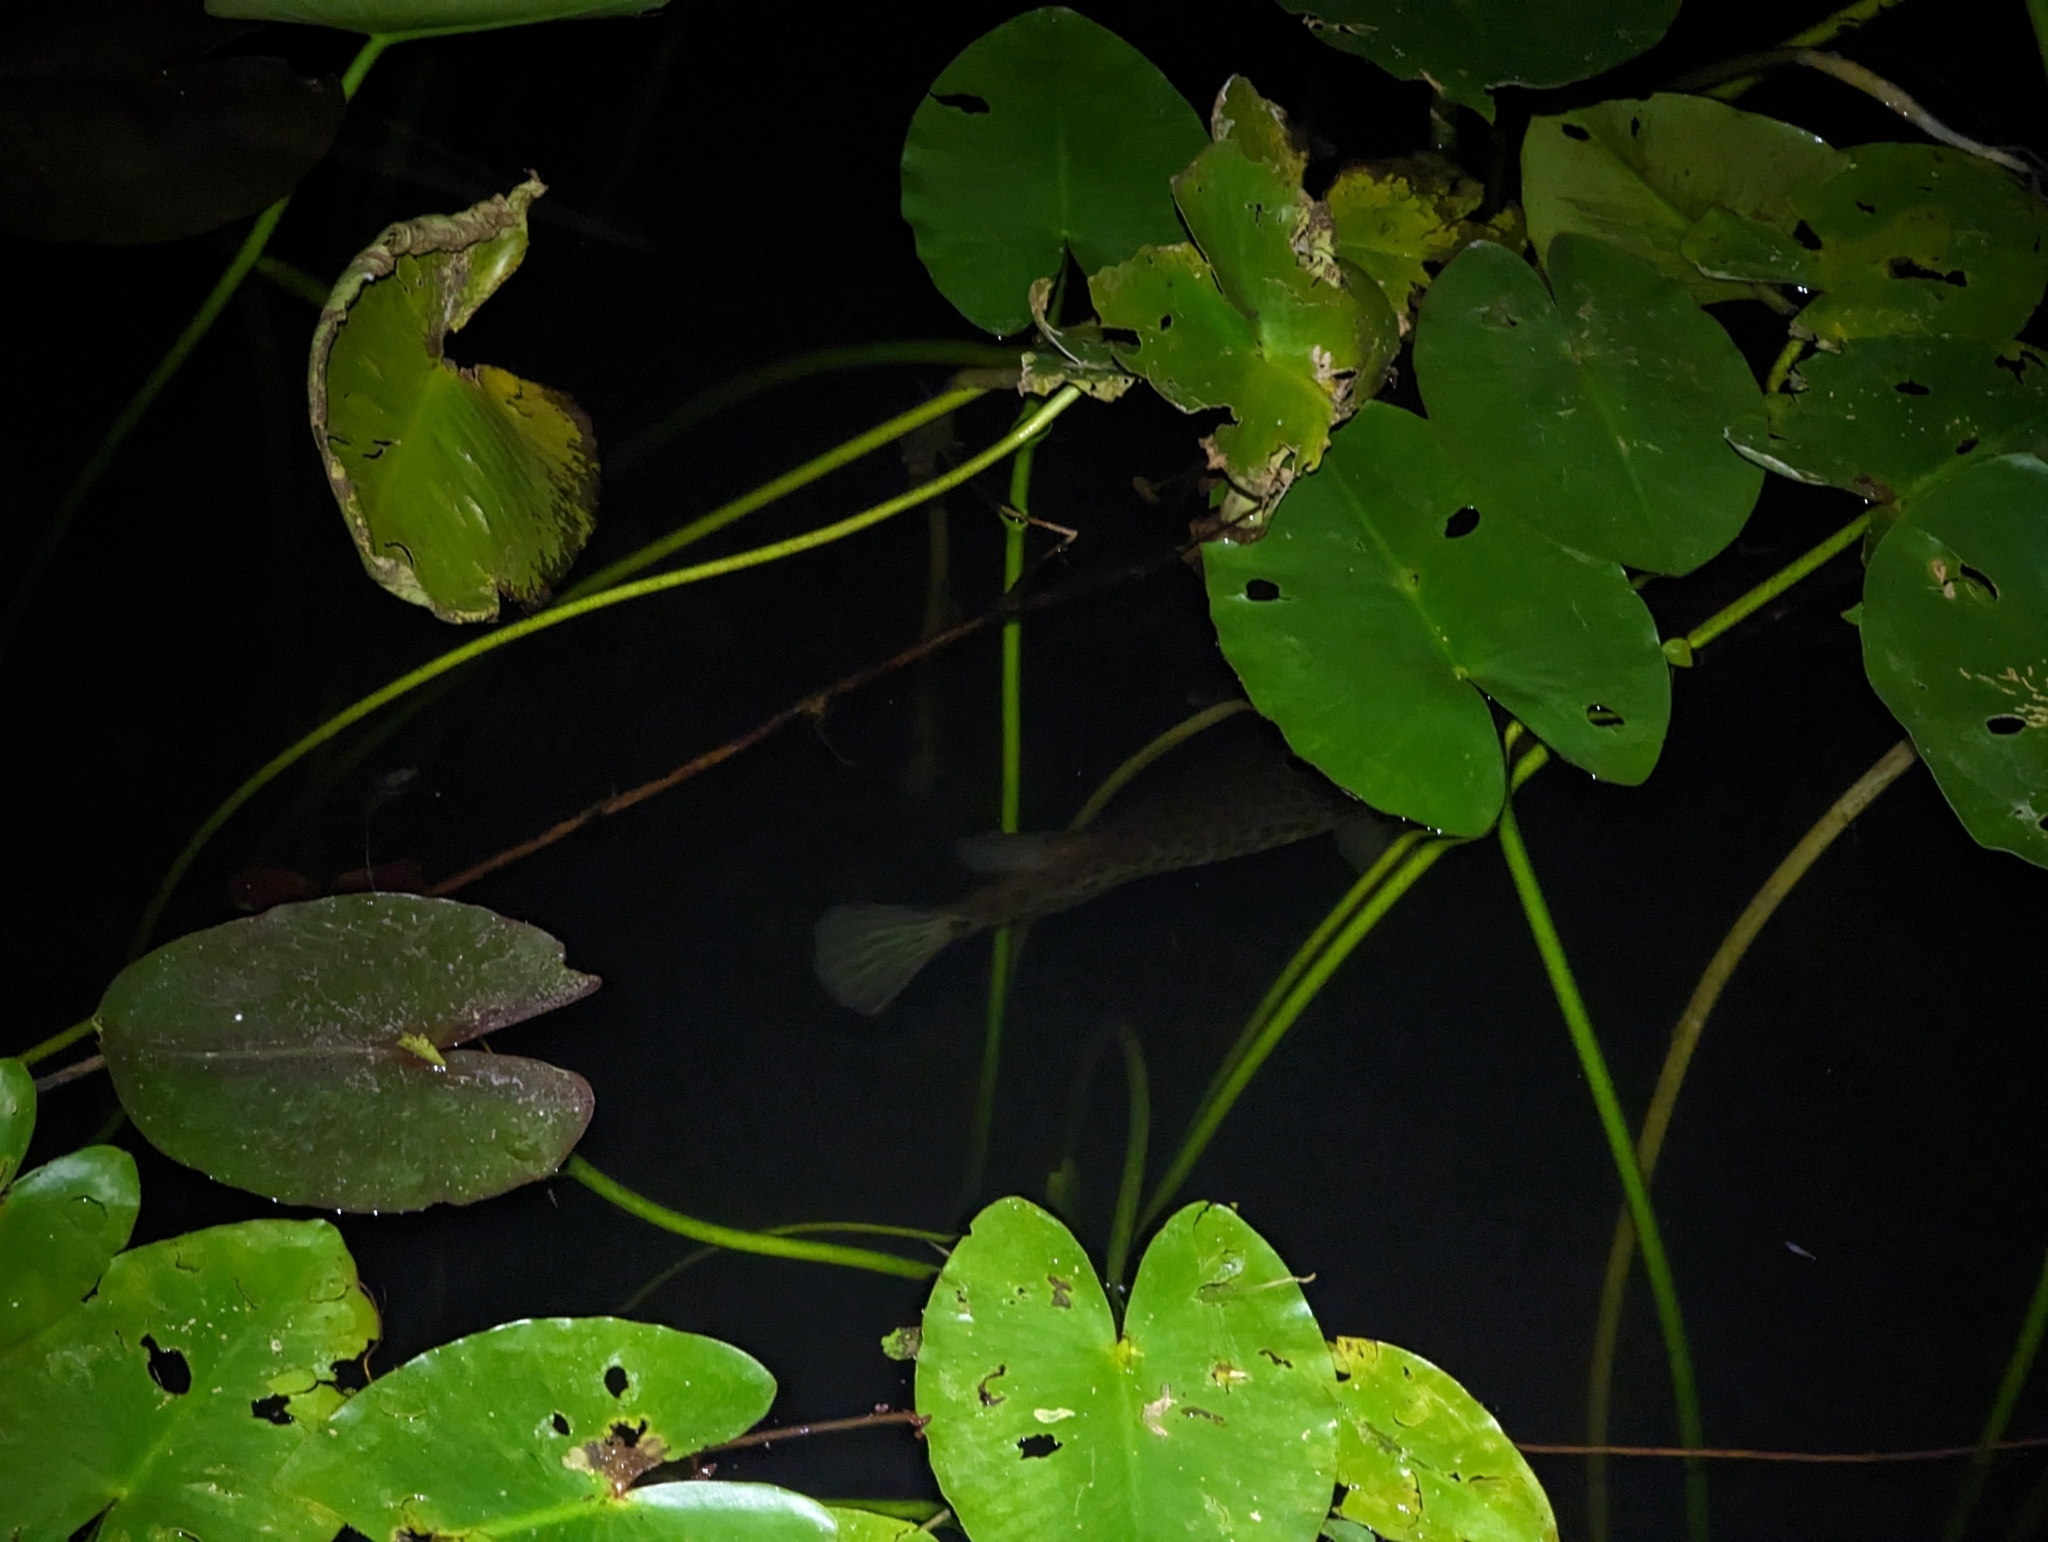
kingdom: Animalia
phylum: Chordata
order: Lepisosteiformes
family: Lepisosteidae
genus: Lepisosteus
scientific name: Lepisosteus platyrhincus
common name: Florida gar
